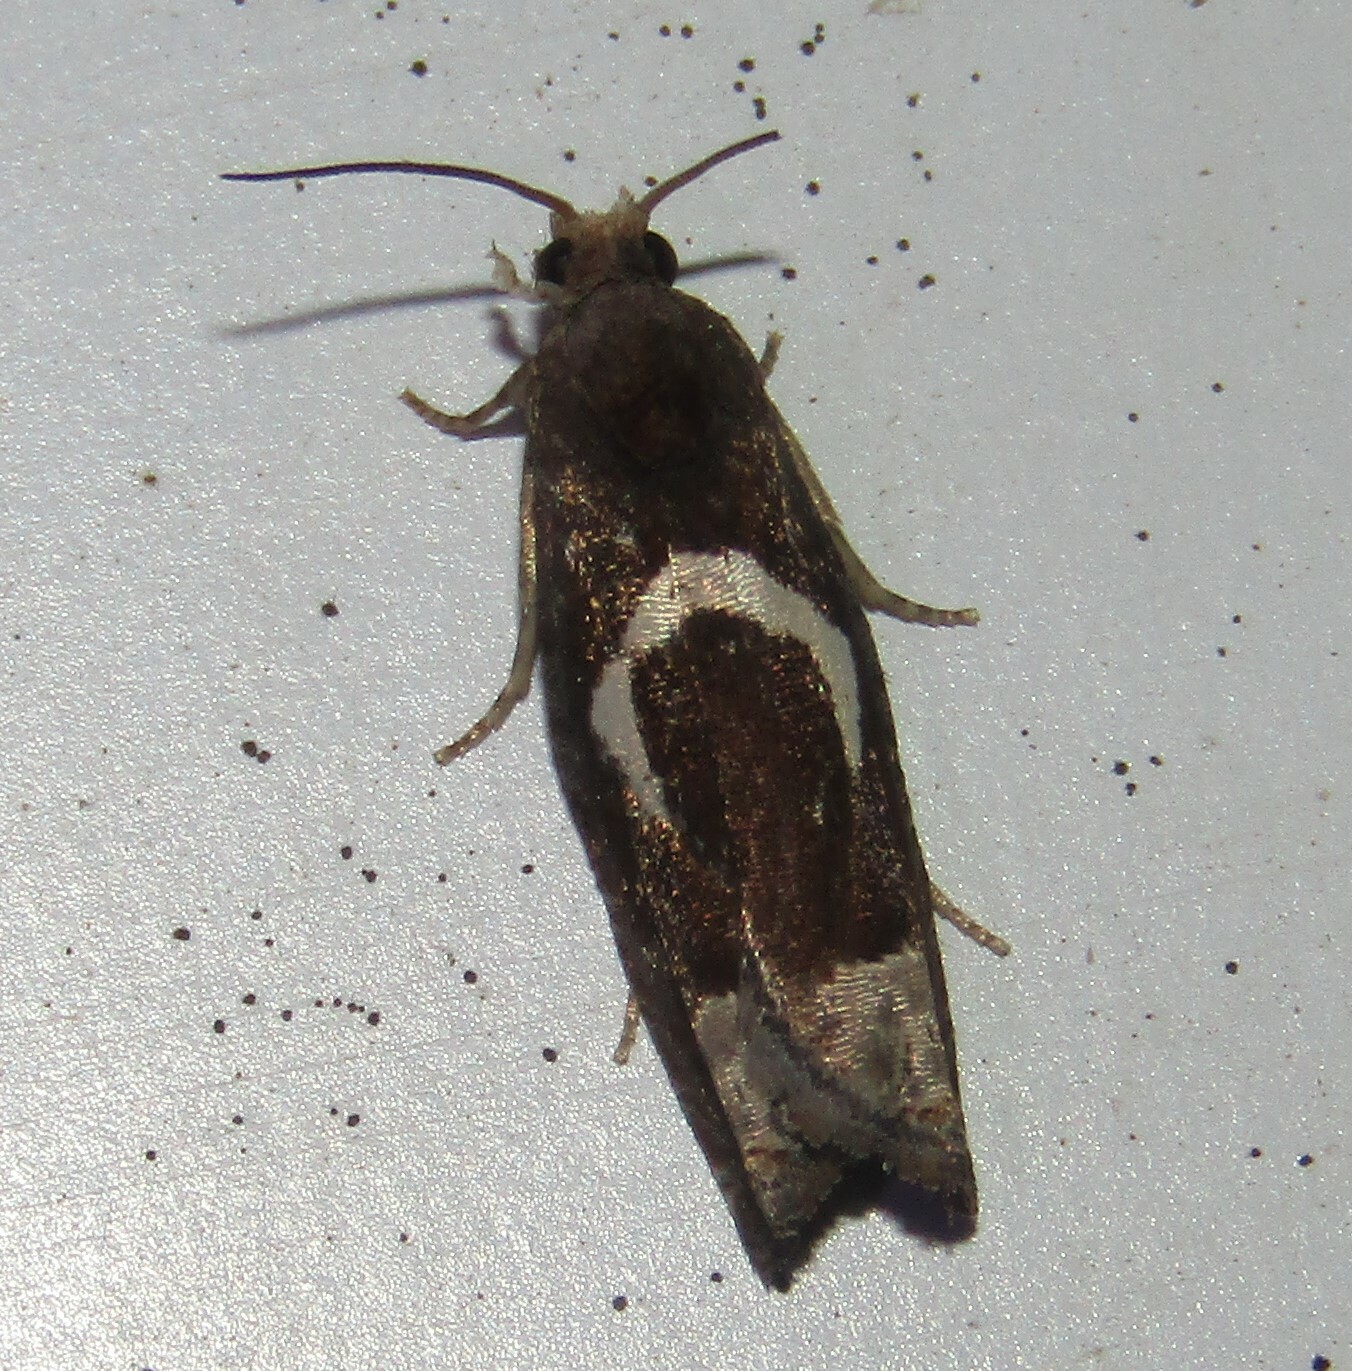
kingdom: Animalia
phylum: Arthropoda
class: Insecta
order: Lepidoptera
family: Tortricidae
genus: Epiblema
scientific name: Epiblema foenella
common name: White-foot bell
